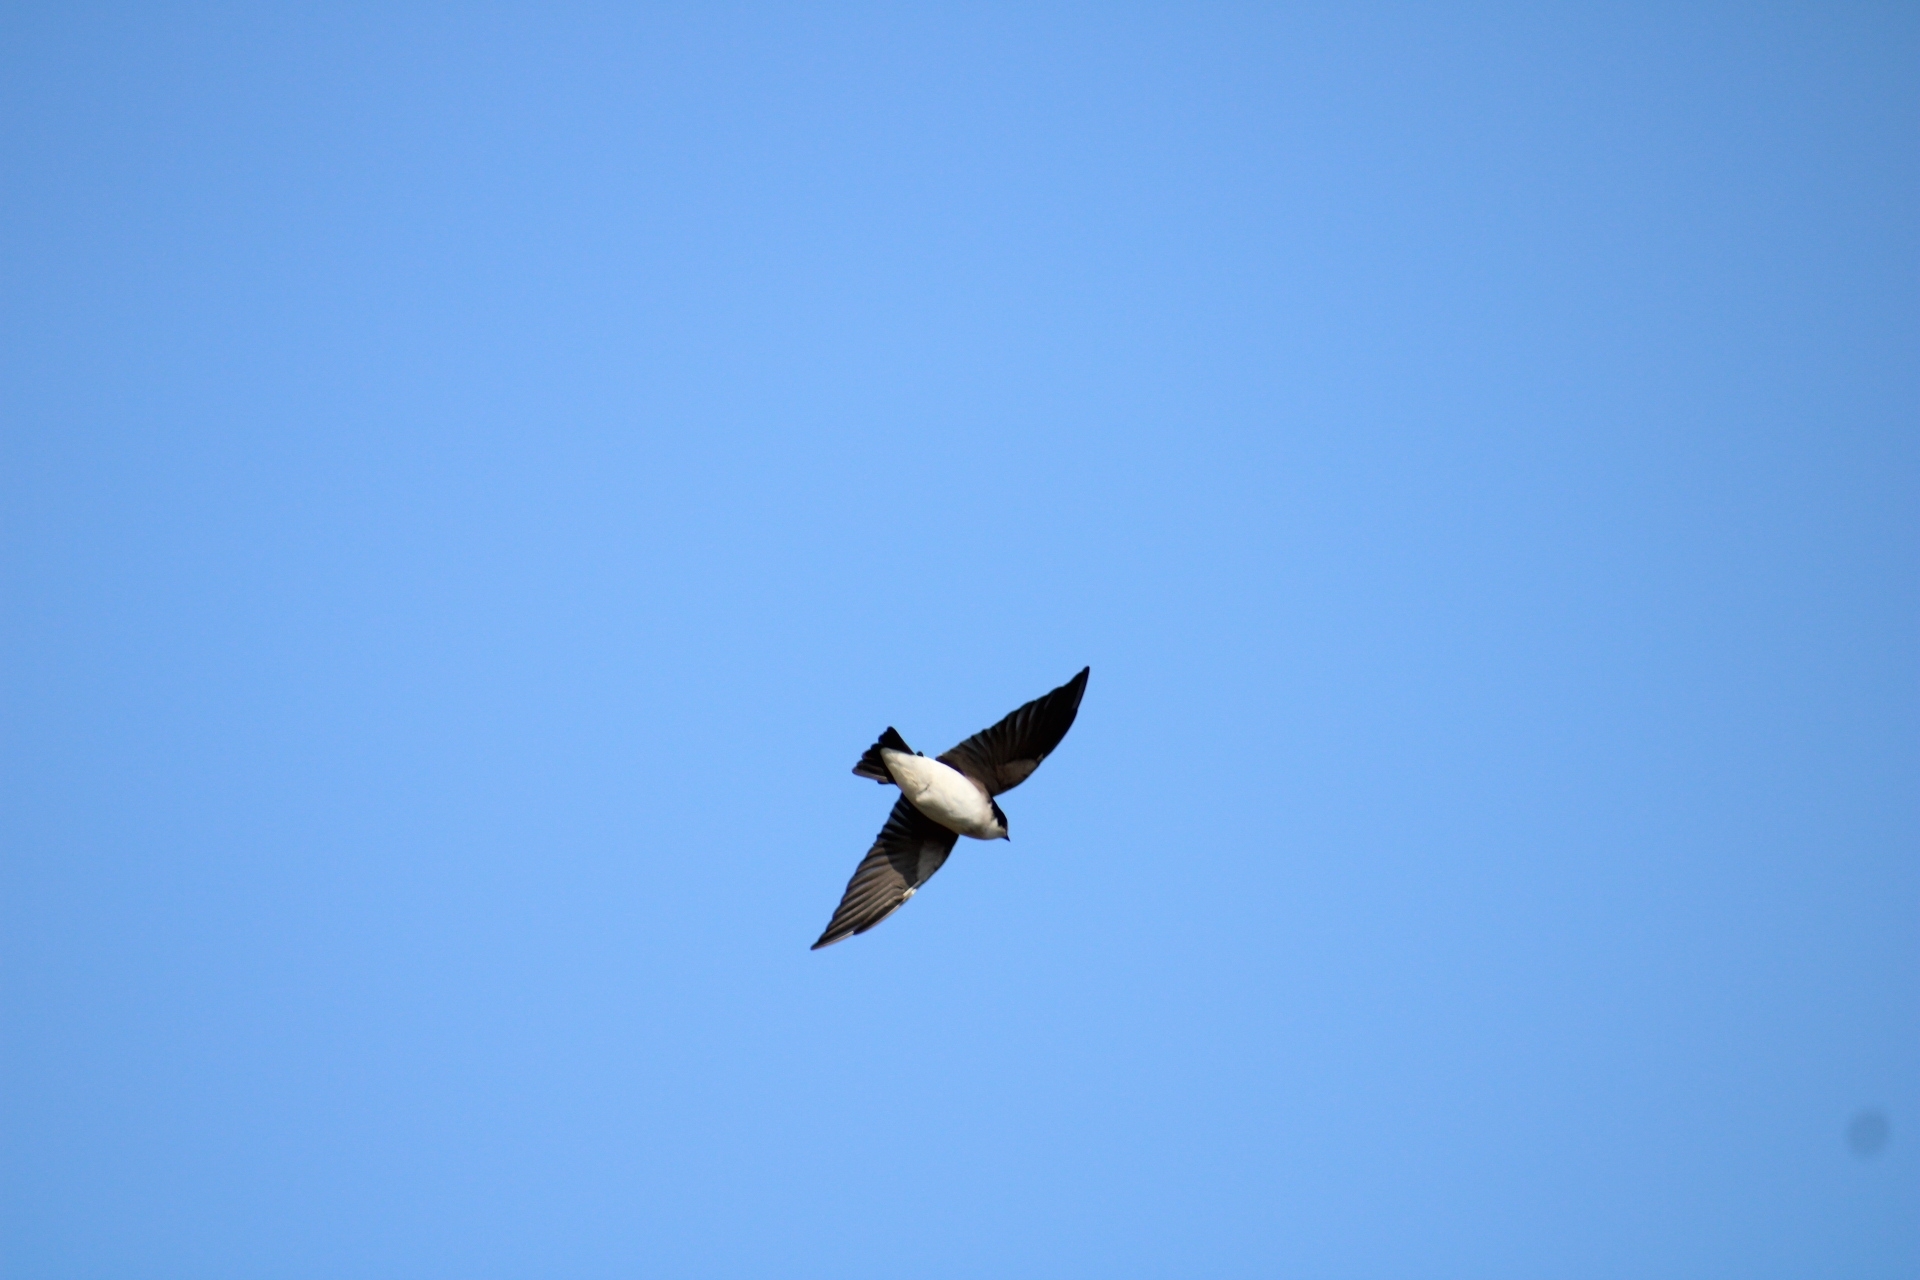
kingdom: Animalia
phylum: Chordata
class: Aves
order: Passeriformes
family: Hirundinidae
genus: Tachycineta
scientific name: Tachycineta leucopyga
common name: Chilean swallow
